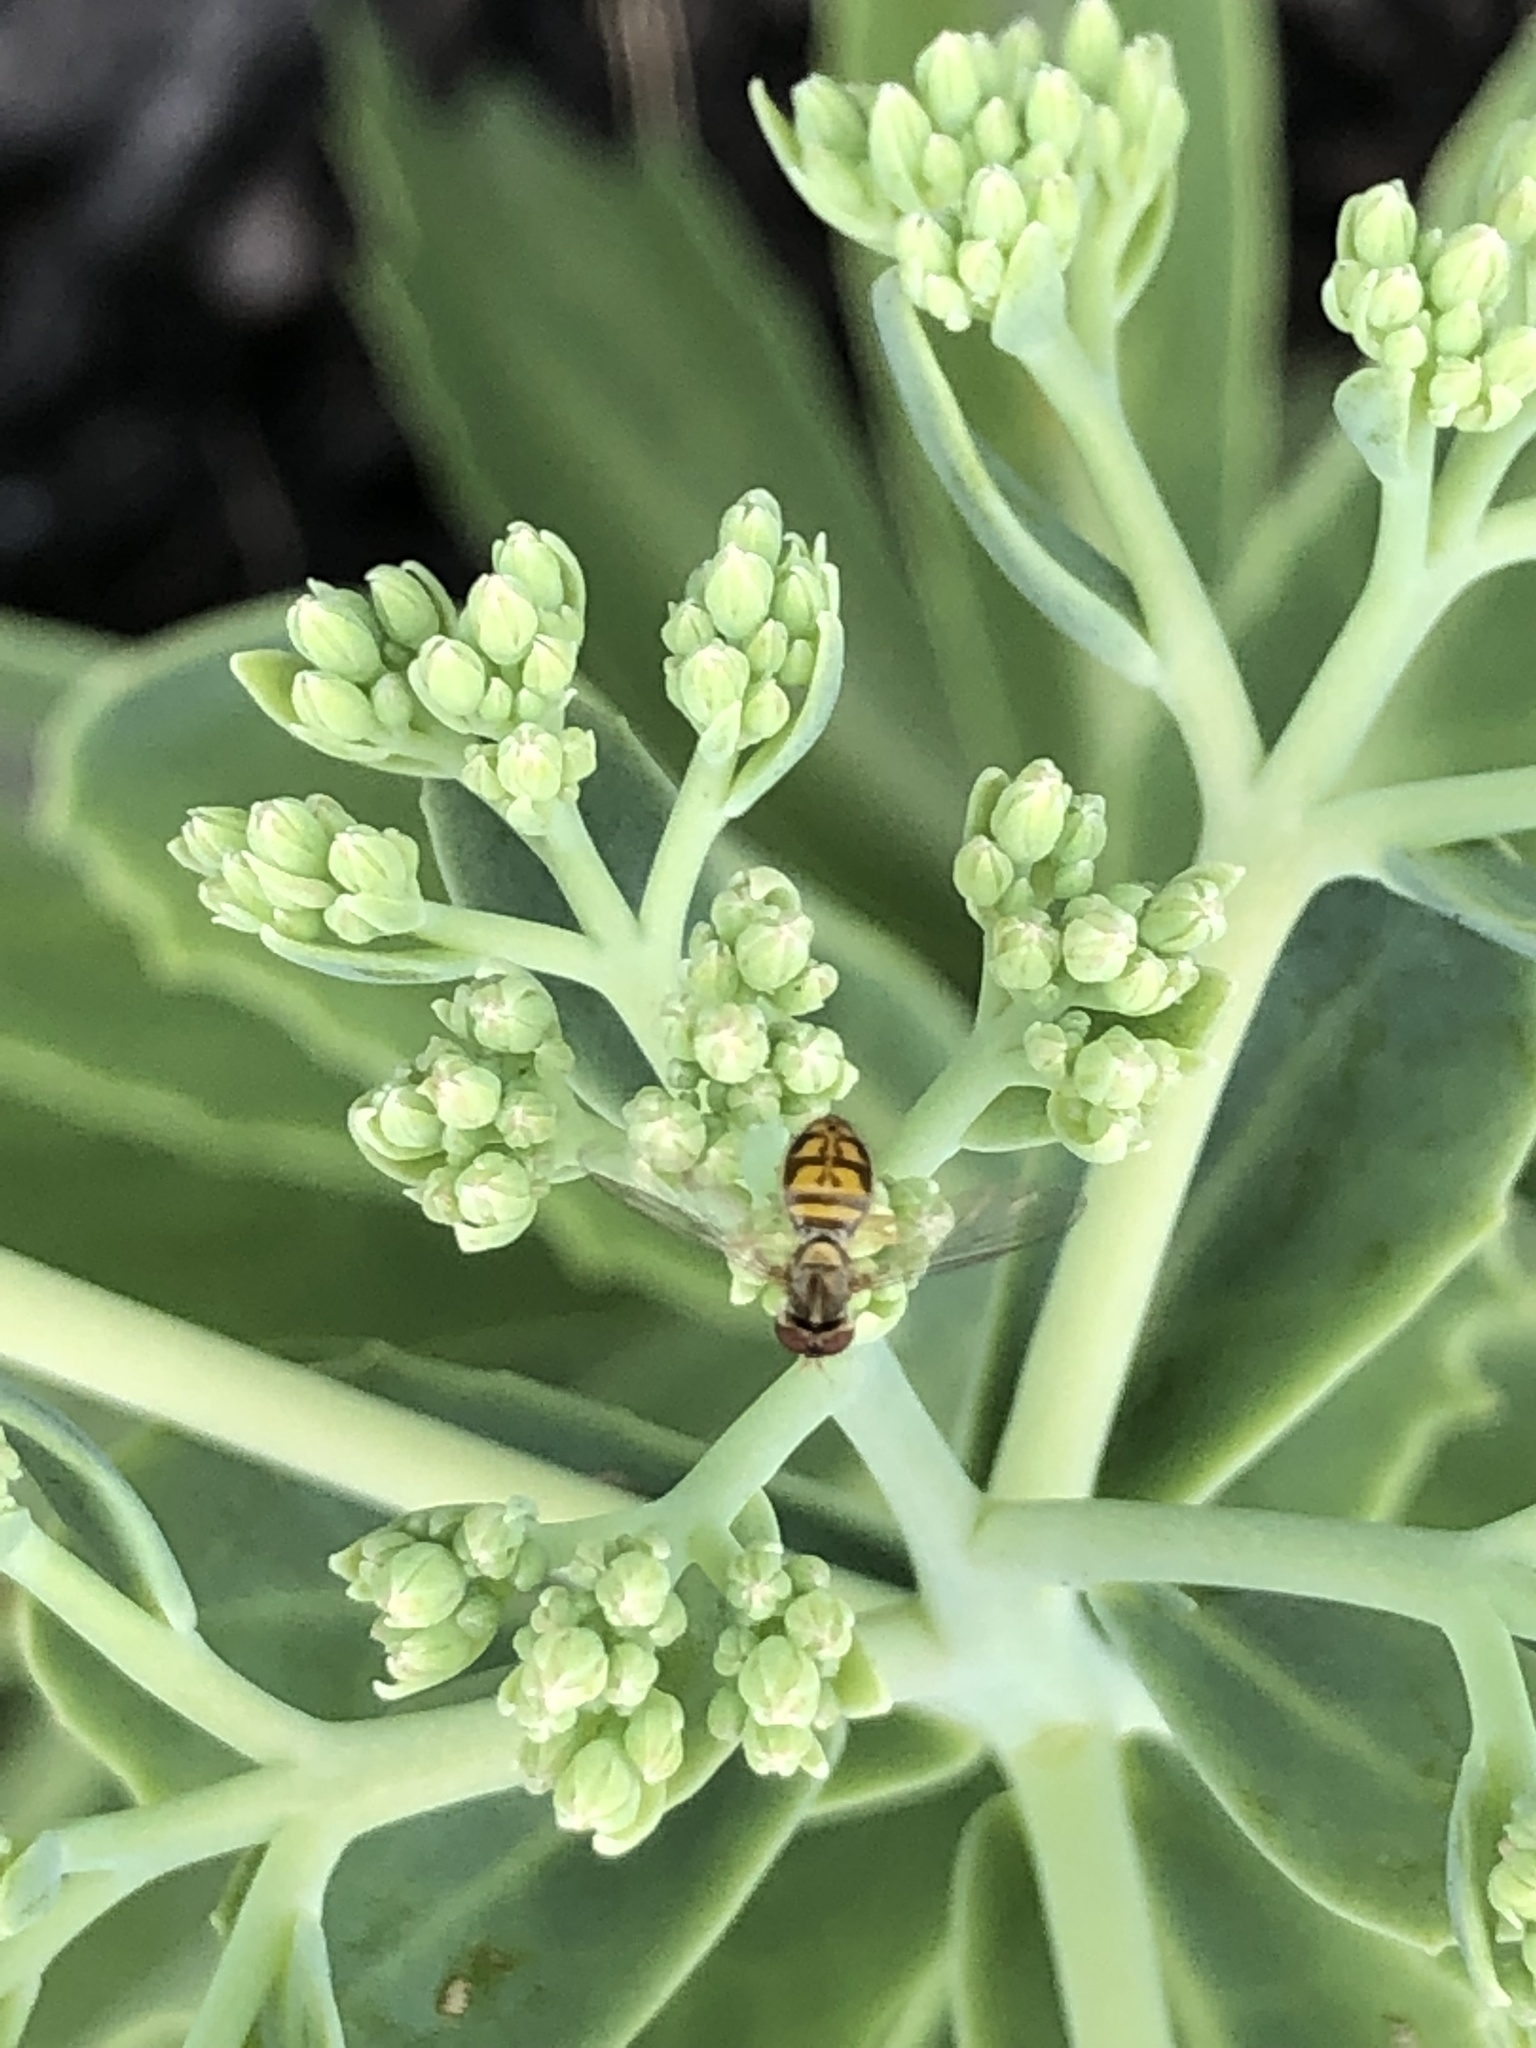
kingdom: Animalia
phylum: Arthropoda
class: Insecta
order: Diptera
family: Syrphidae
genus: Toxomerus
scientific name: Toxomerus marginatus
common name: Syrphid fly
